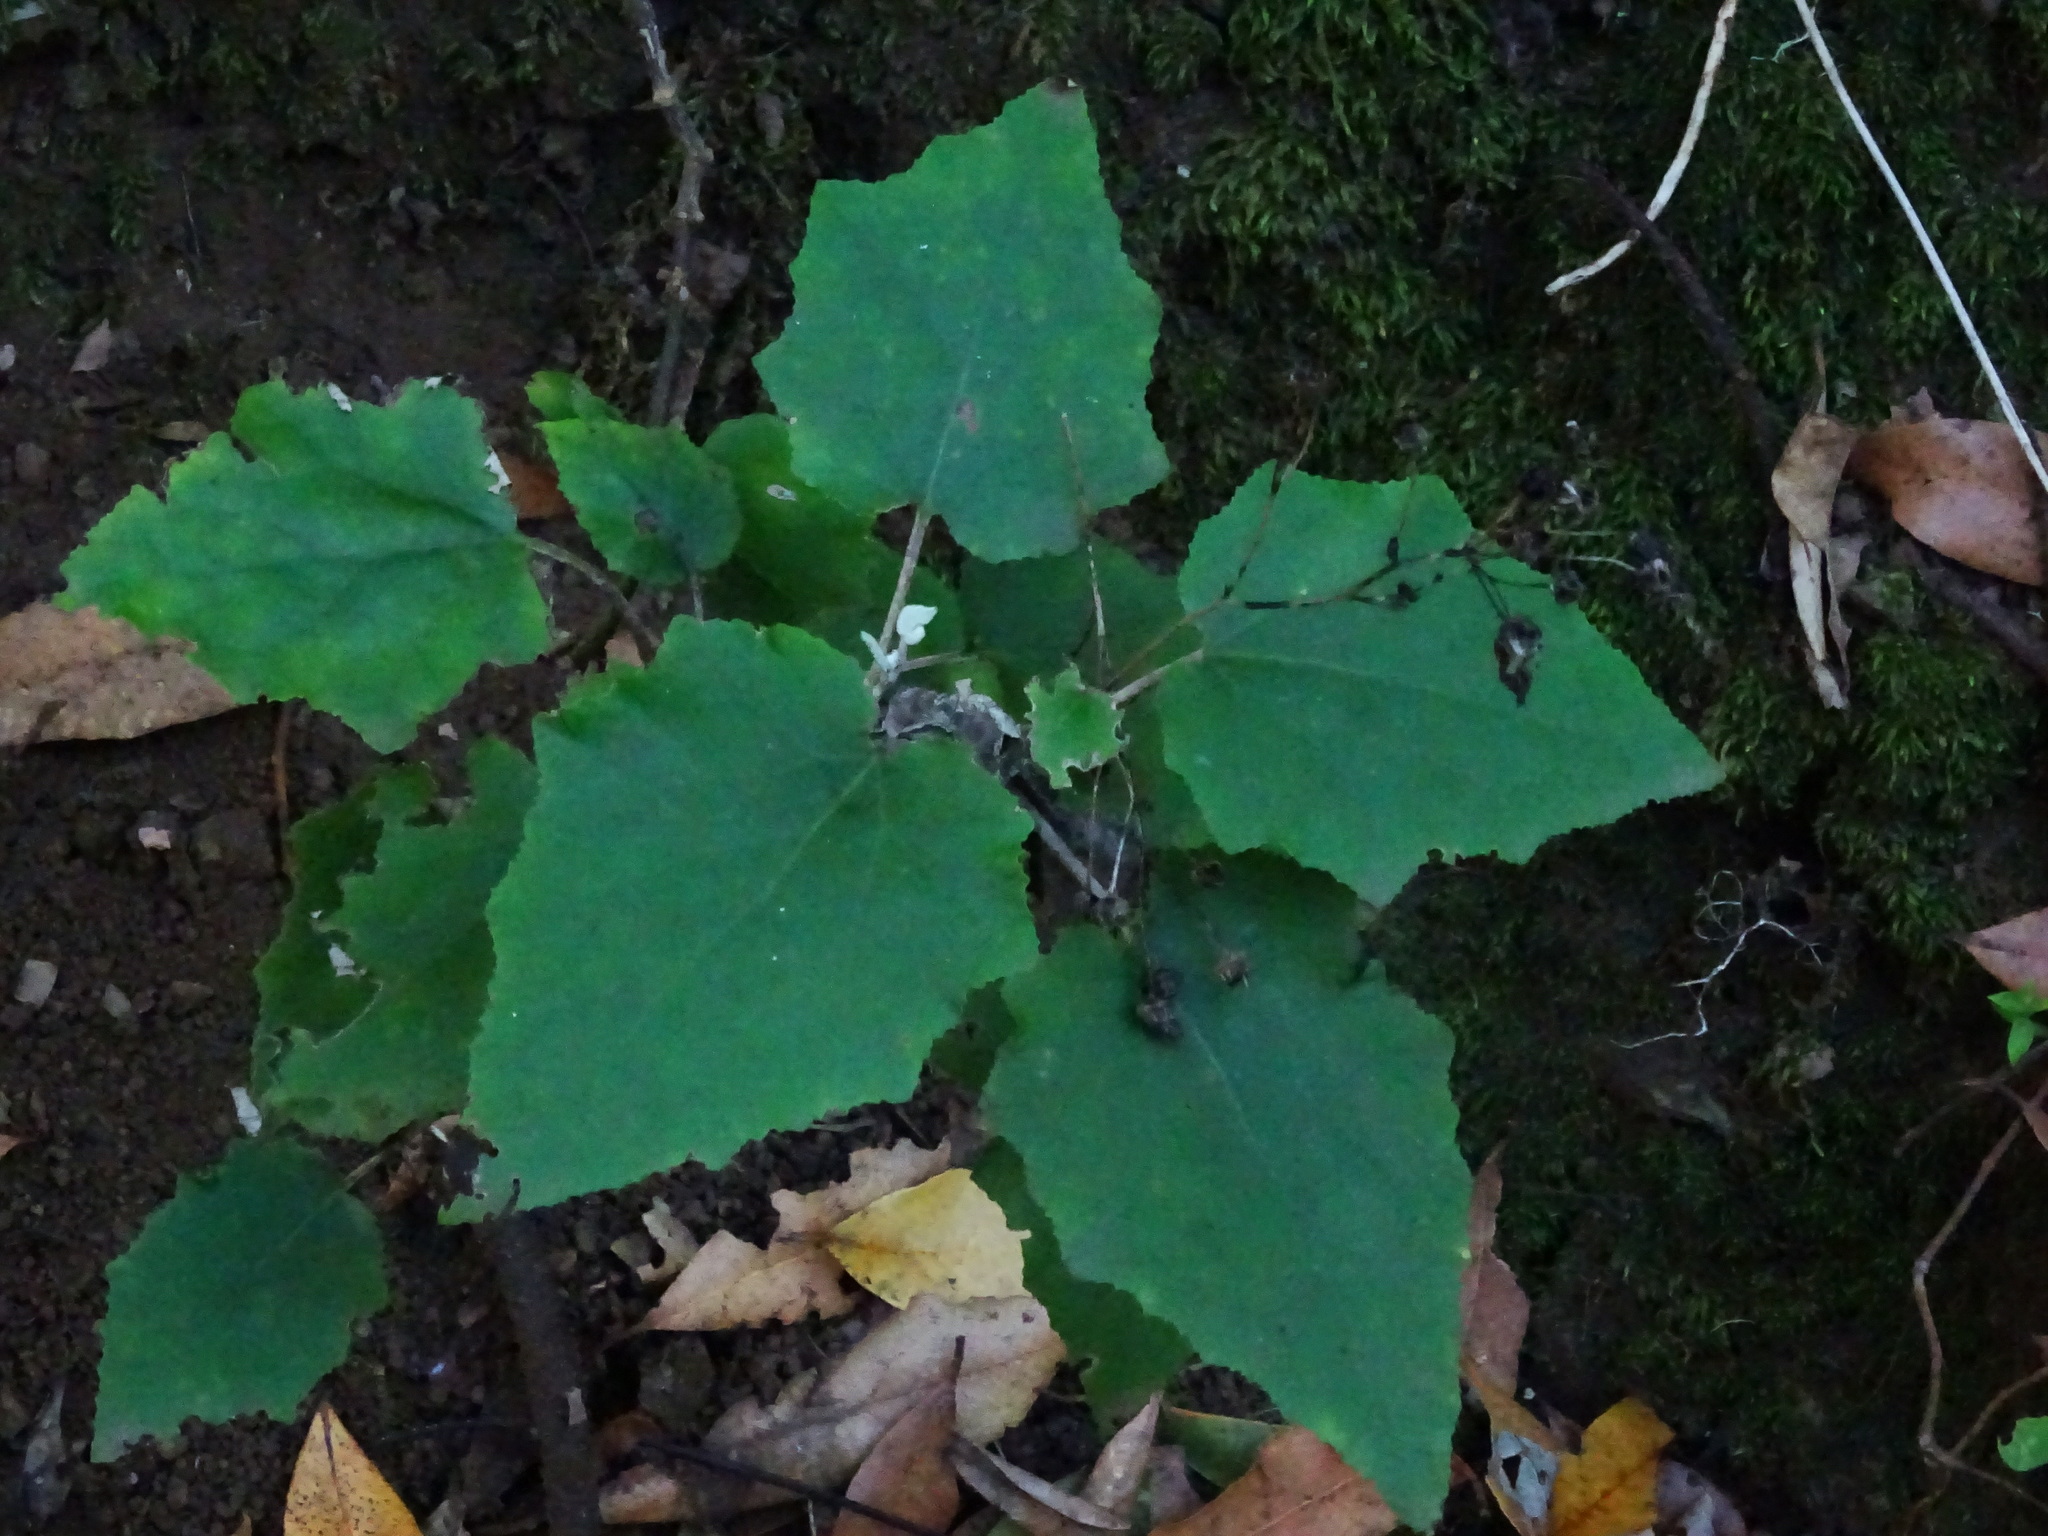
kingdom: Plantae
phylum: Tracheophyta
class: Magnoliopsida
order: Asterales
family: Asteraceae
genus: Pericallis
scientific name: Pericallis appendiculata
